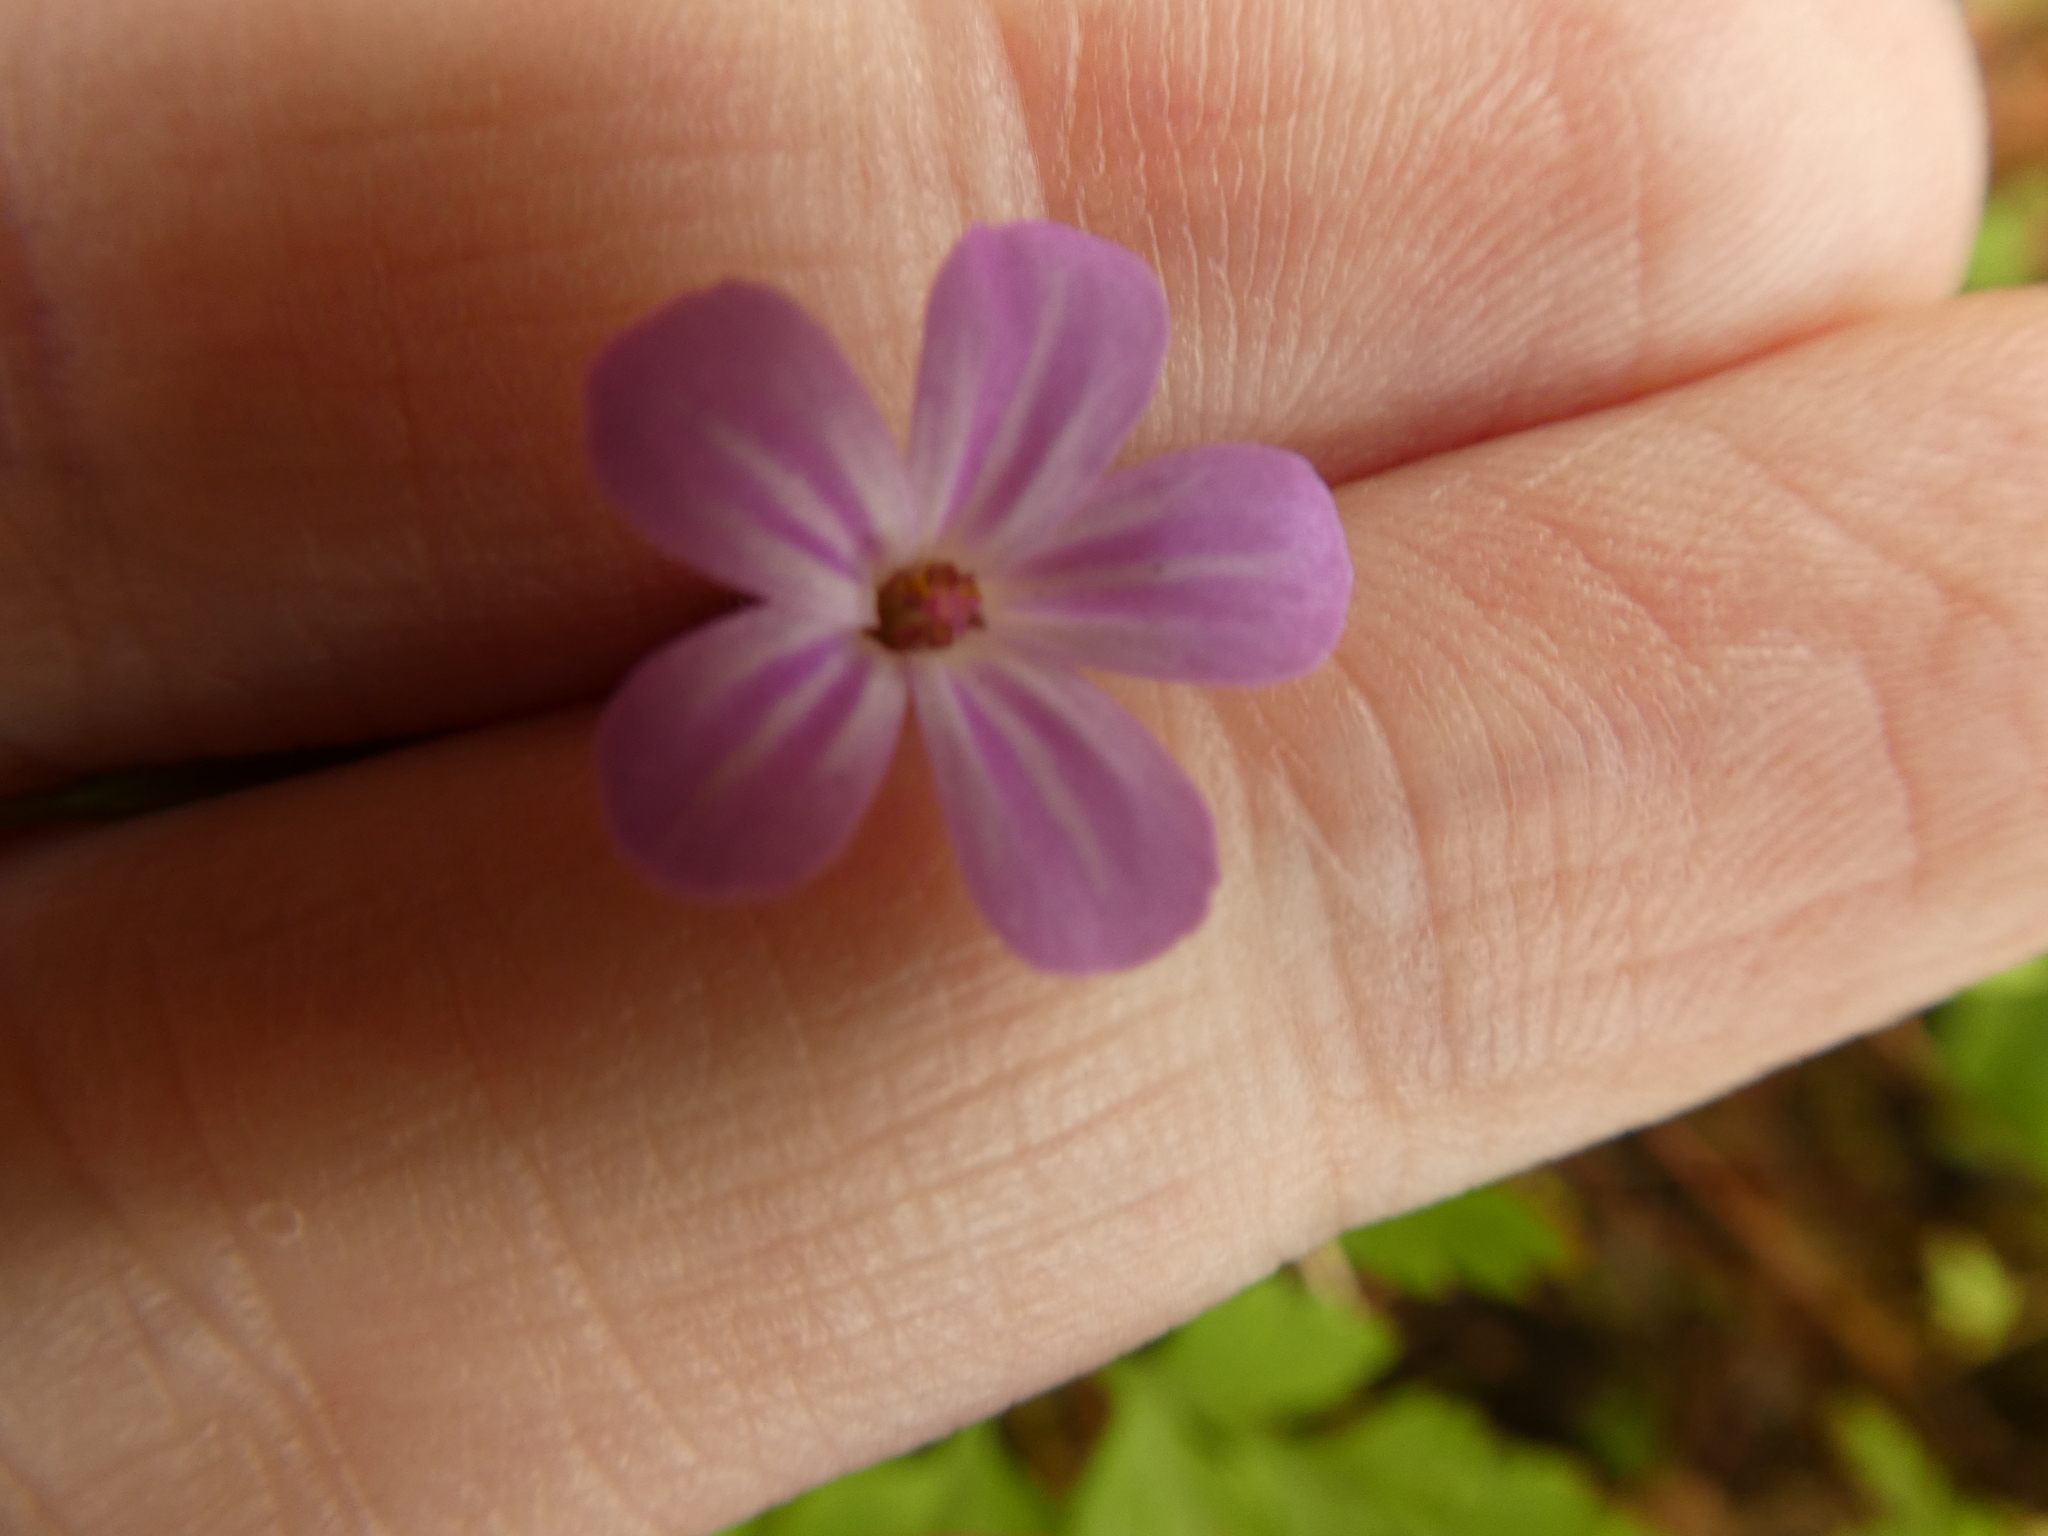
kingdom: Plantae
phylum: Tracheophyta
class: Magnoliopsida
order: Geraniales
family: Geraniaceae
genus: Geranium
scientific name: Geranium robertianum
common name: Herb-robert
